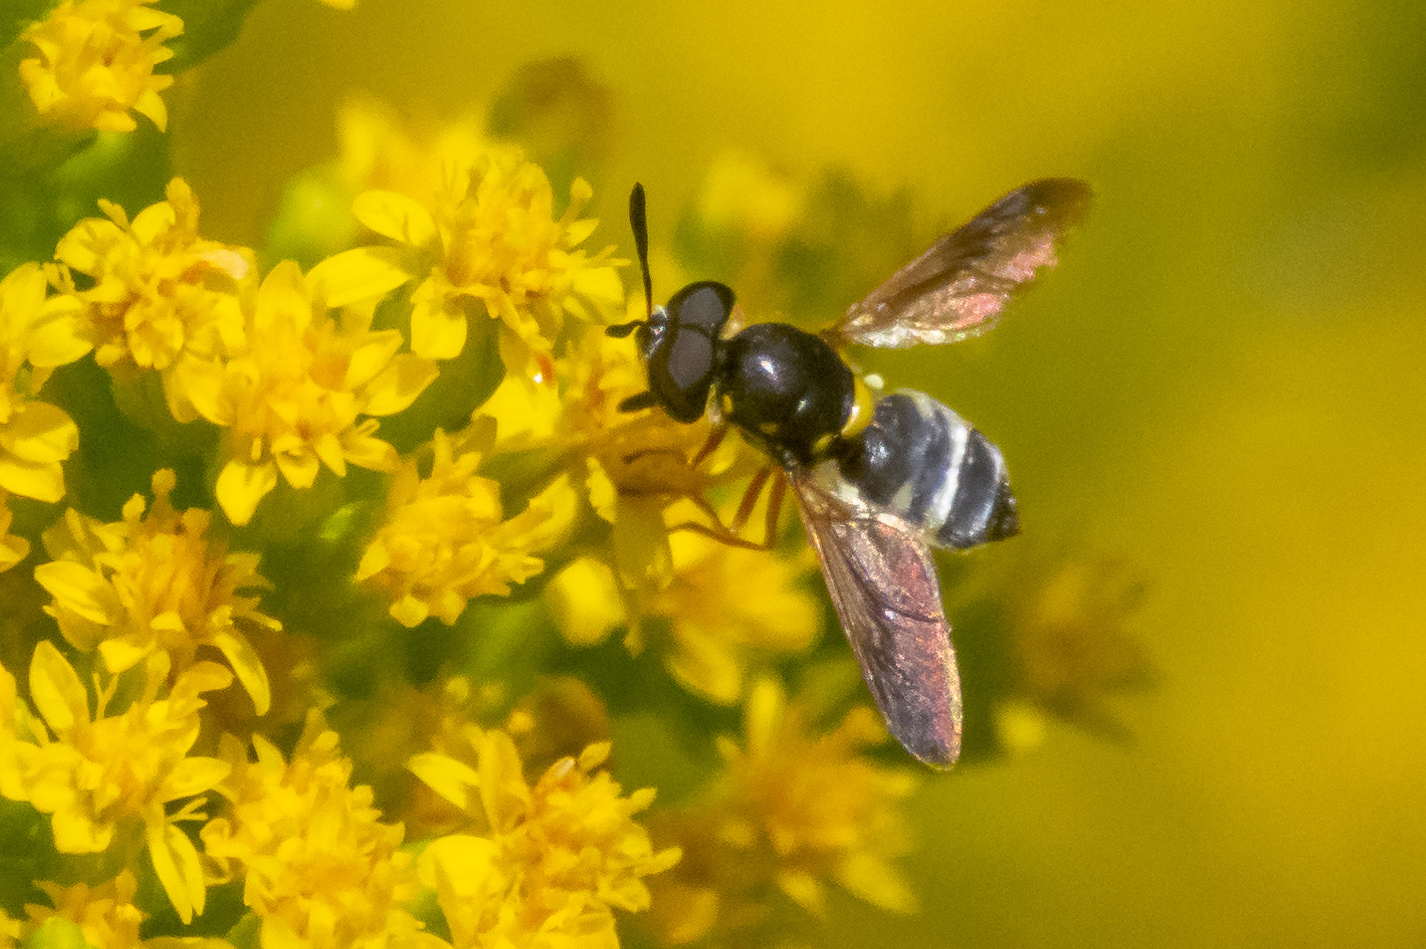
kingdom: Animalia
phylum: Arthropoda
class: Insecta
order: Diptera
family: Stratiomyidae
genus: Hoplitimyia
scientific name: Hoplitimyia constans
